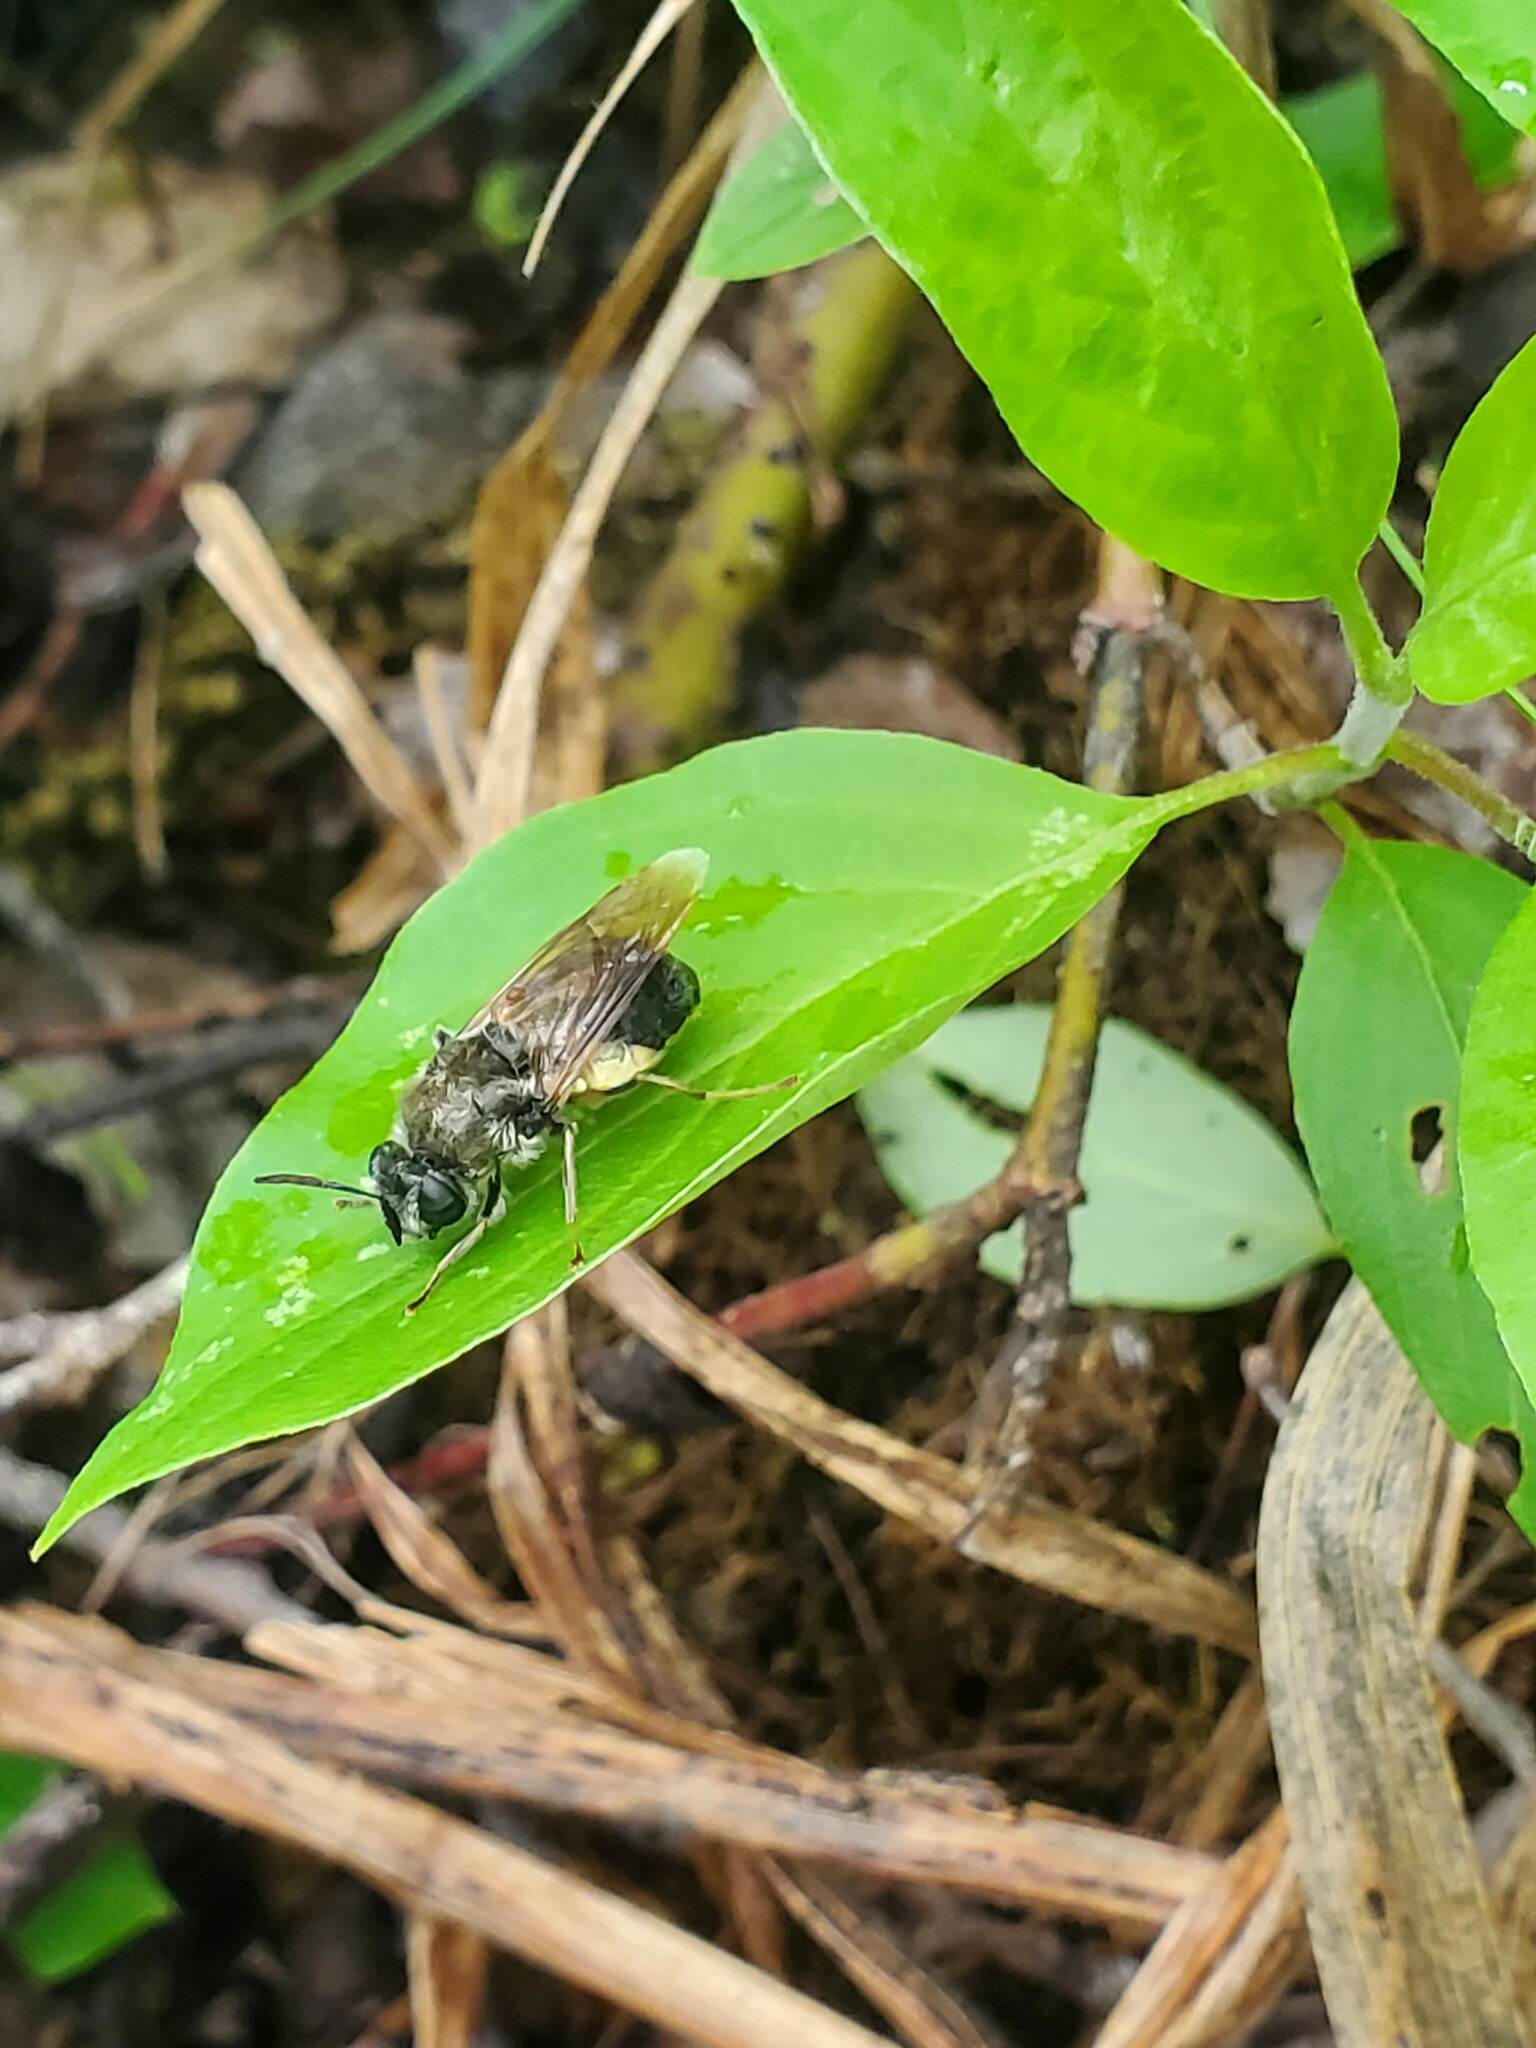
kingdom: Animalia
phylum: Arthropoda
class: Insecta
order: Diptera
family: Stratiomyidae
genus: Stratiomys
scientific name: Stratiomys discalis
